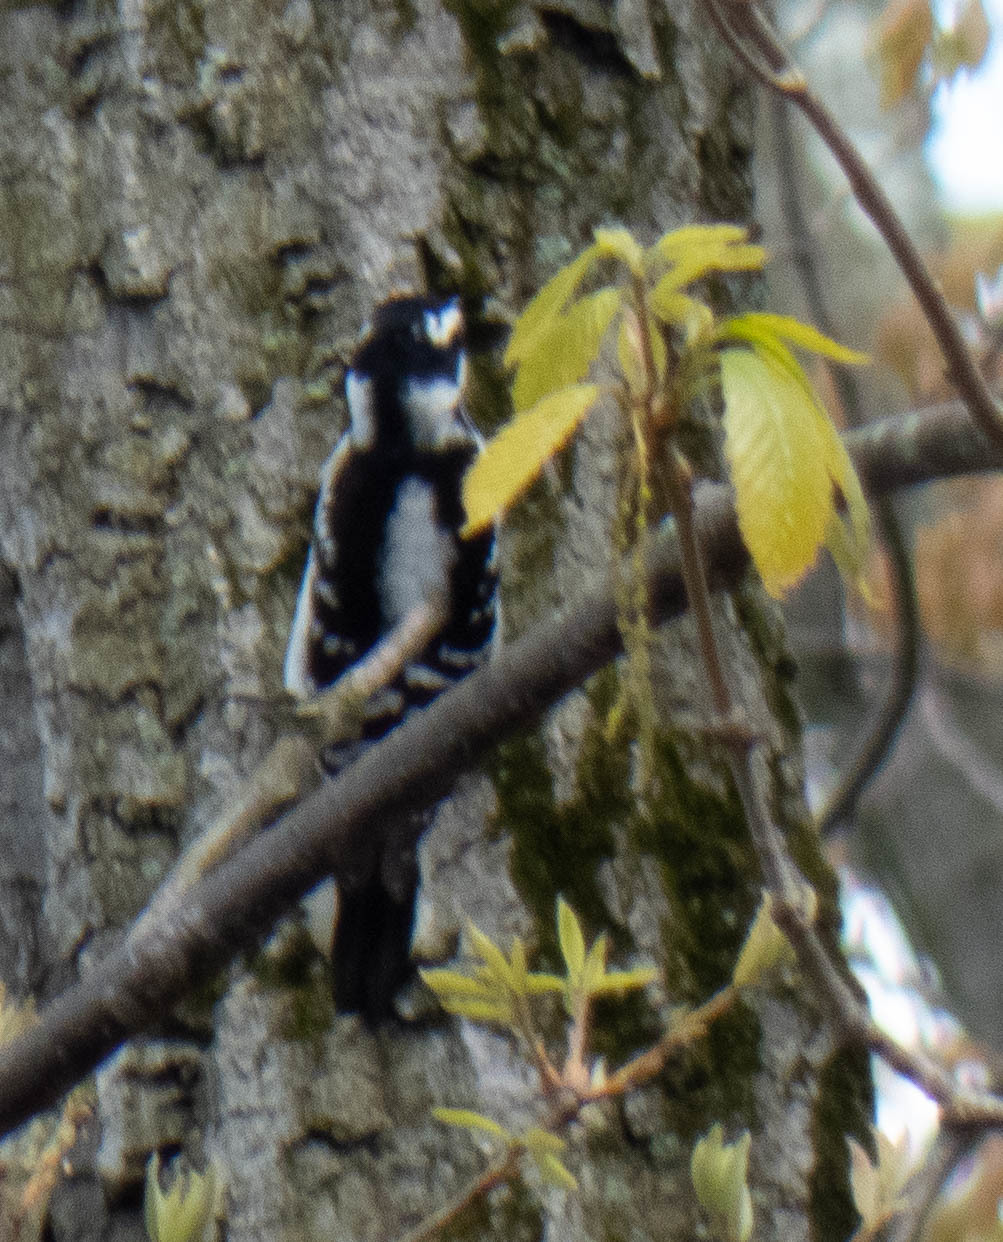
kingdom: Animalia
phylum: Chordata
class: Aves
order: Piciformes
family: Picidae
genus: Dryobates
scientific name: Dryobates pubescens
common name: Downy woodpecker
